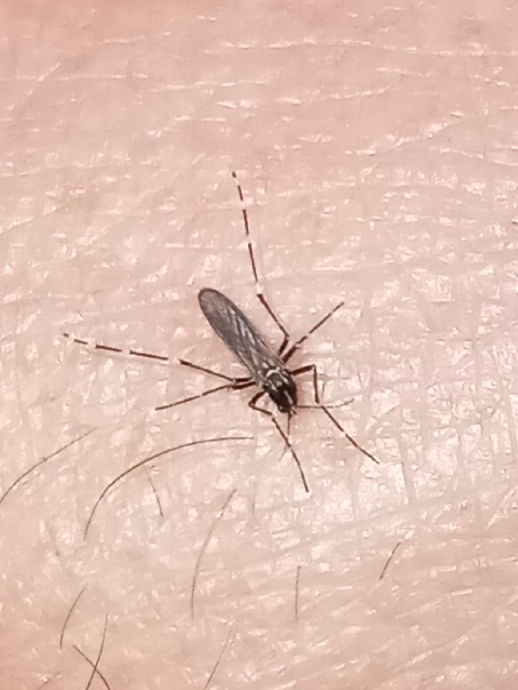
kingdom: Animalia
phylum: Arthropoda
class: Insecta
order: Diptera
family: Culicidae
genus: Aedes
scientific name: Aedes albopictus
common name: Tiger mosquito
